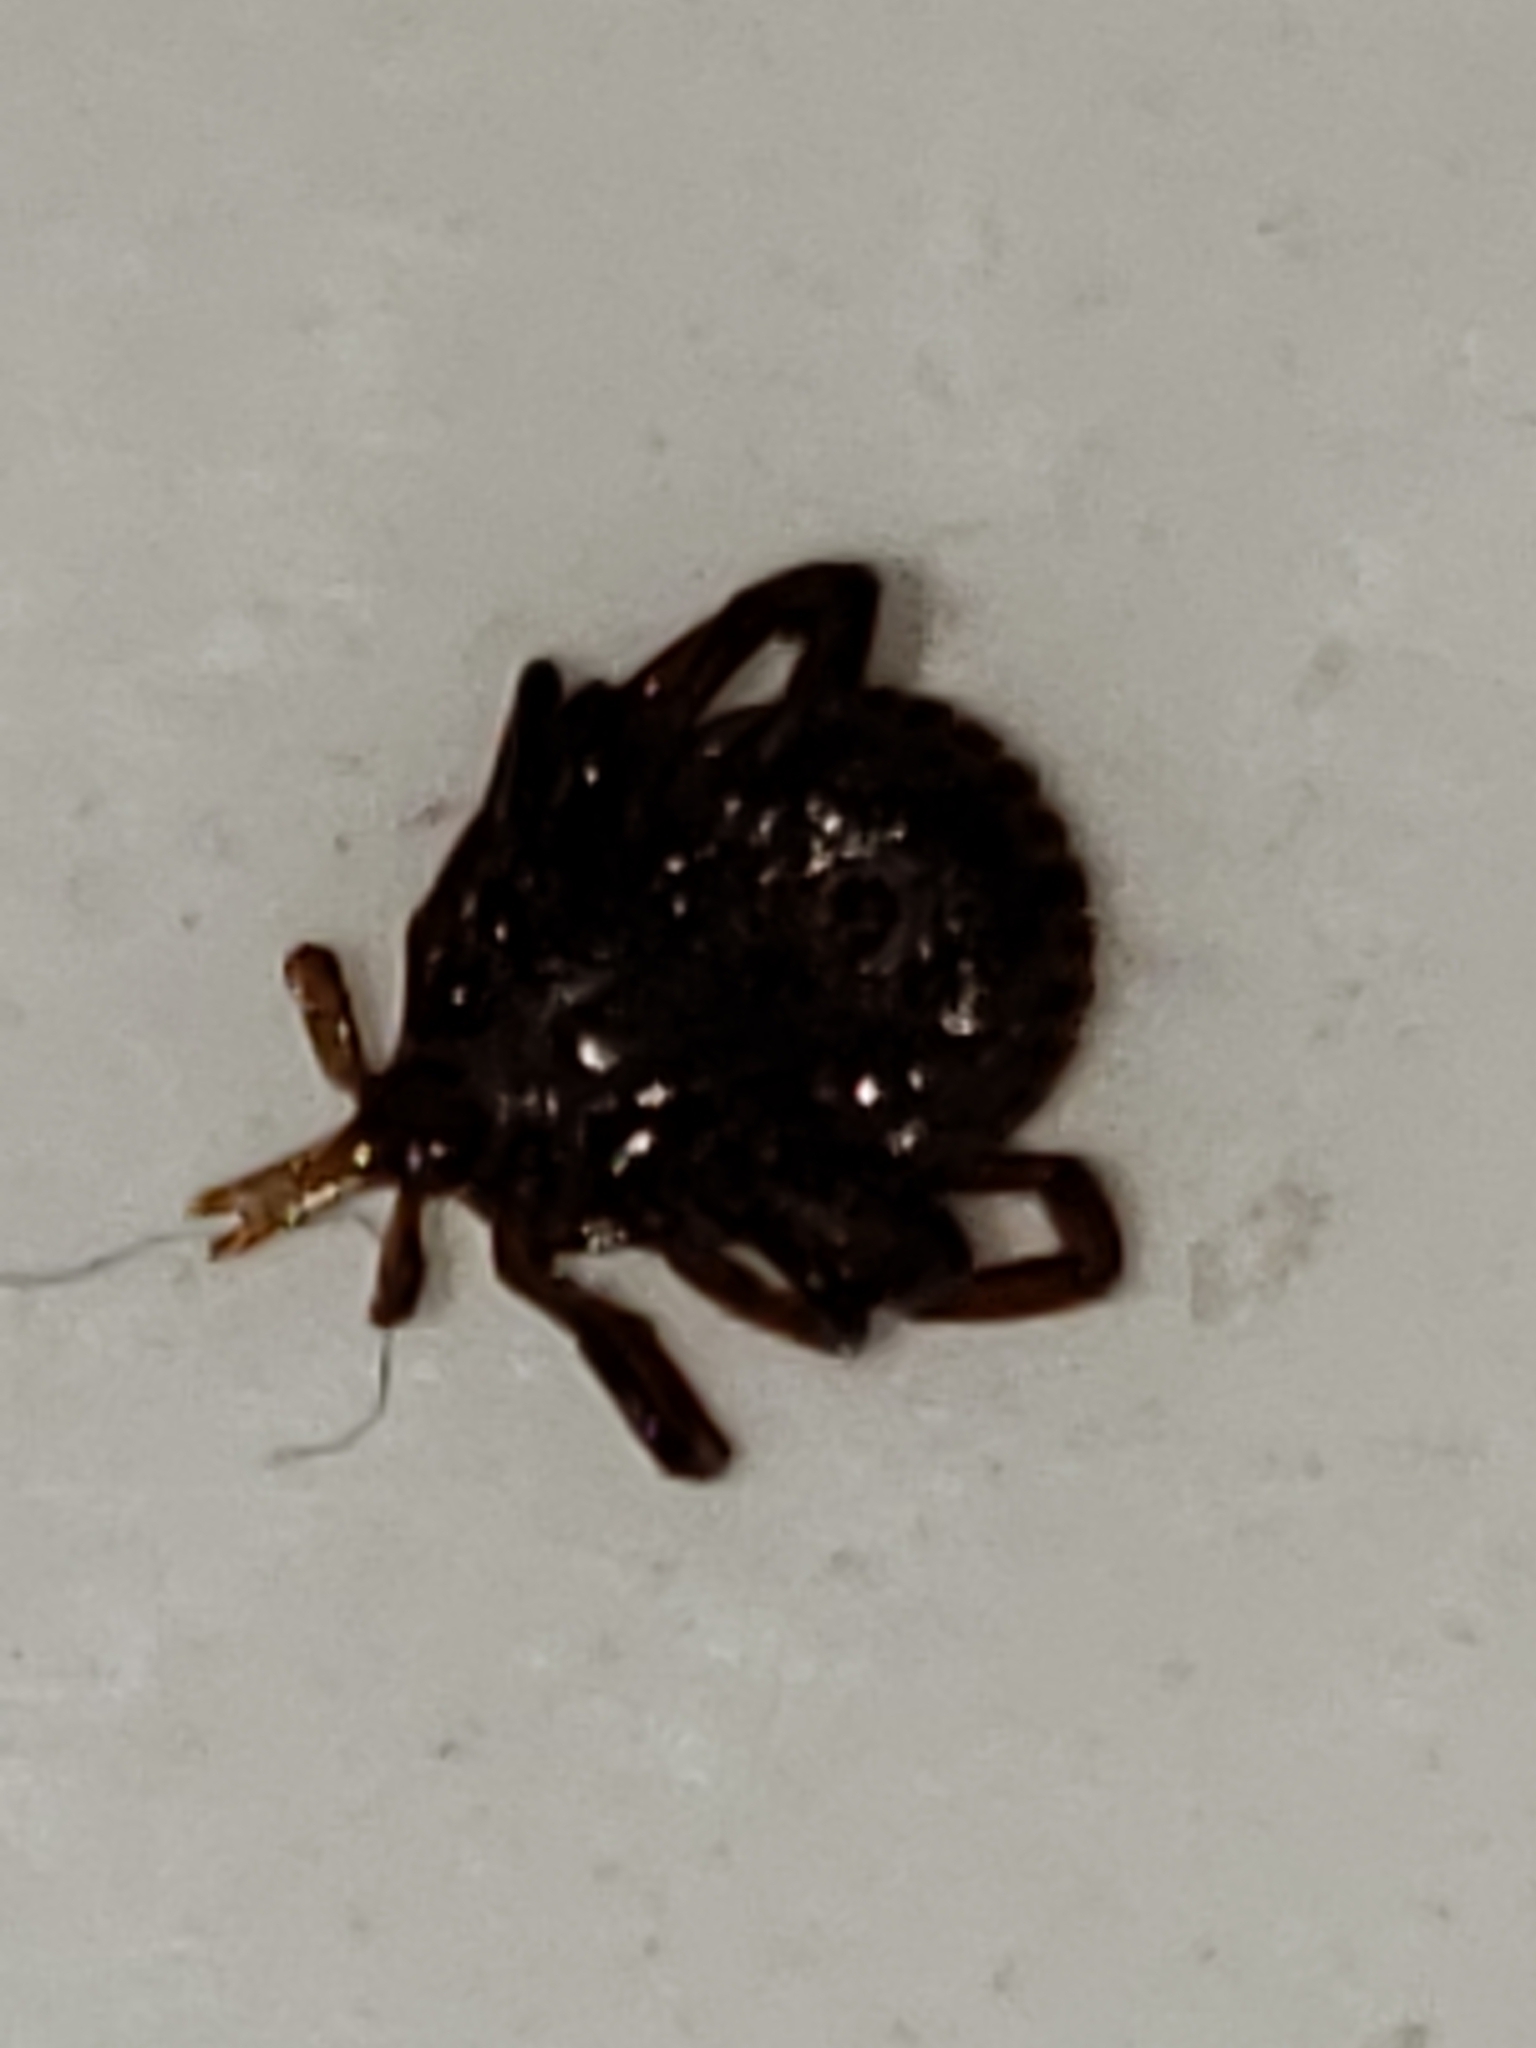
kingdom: Animalia
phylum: Arthropoda
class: Arachnida
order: Ixodida
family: Ixodidae
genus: Amblyomma
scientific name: Amblyomma americanum
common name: Lone star tick
